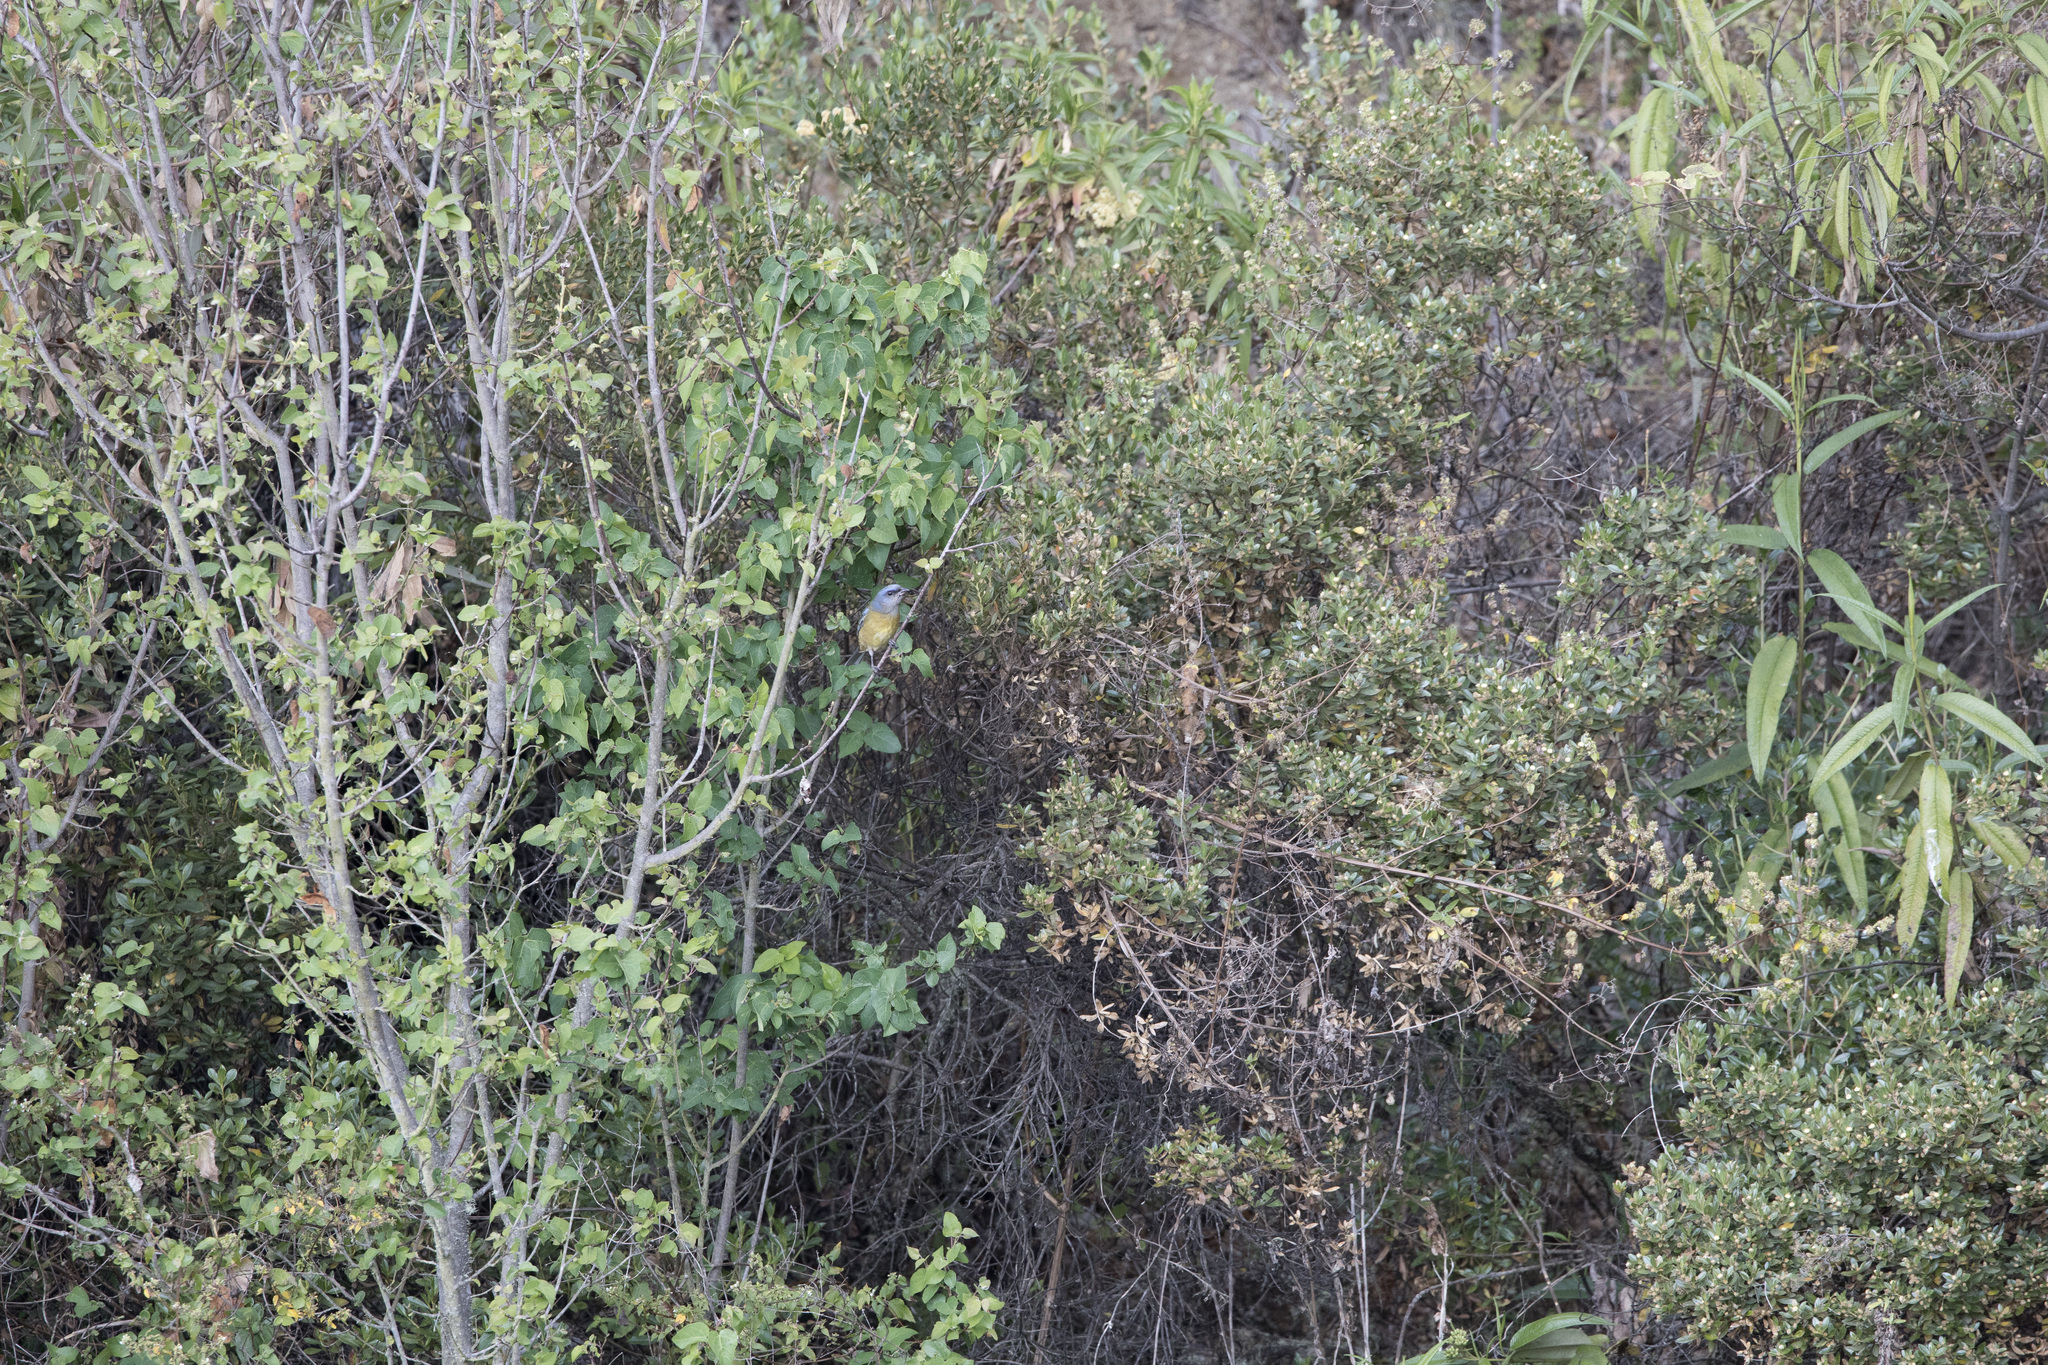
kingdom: Animalia
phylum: Chordata
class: Aves
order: Passeriformes
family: Thraupidae
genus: Rauenia
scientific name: Rauenia bonariensis
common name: Blue-and-yellow tanager
